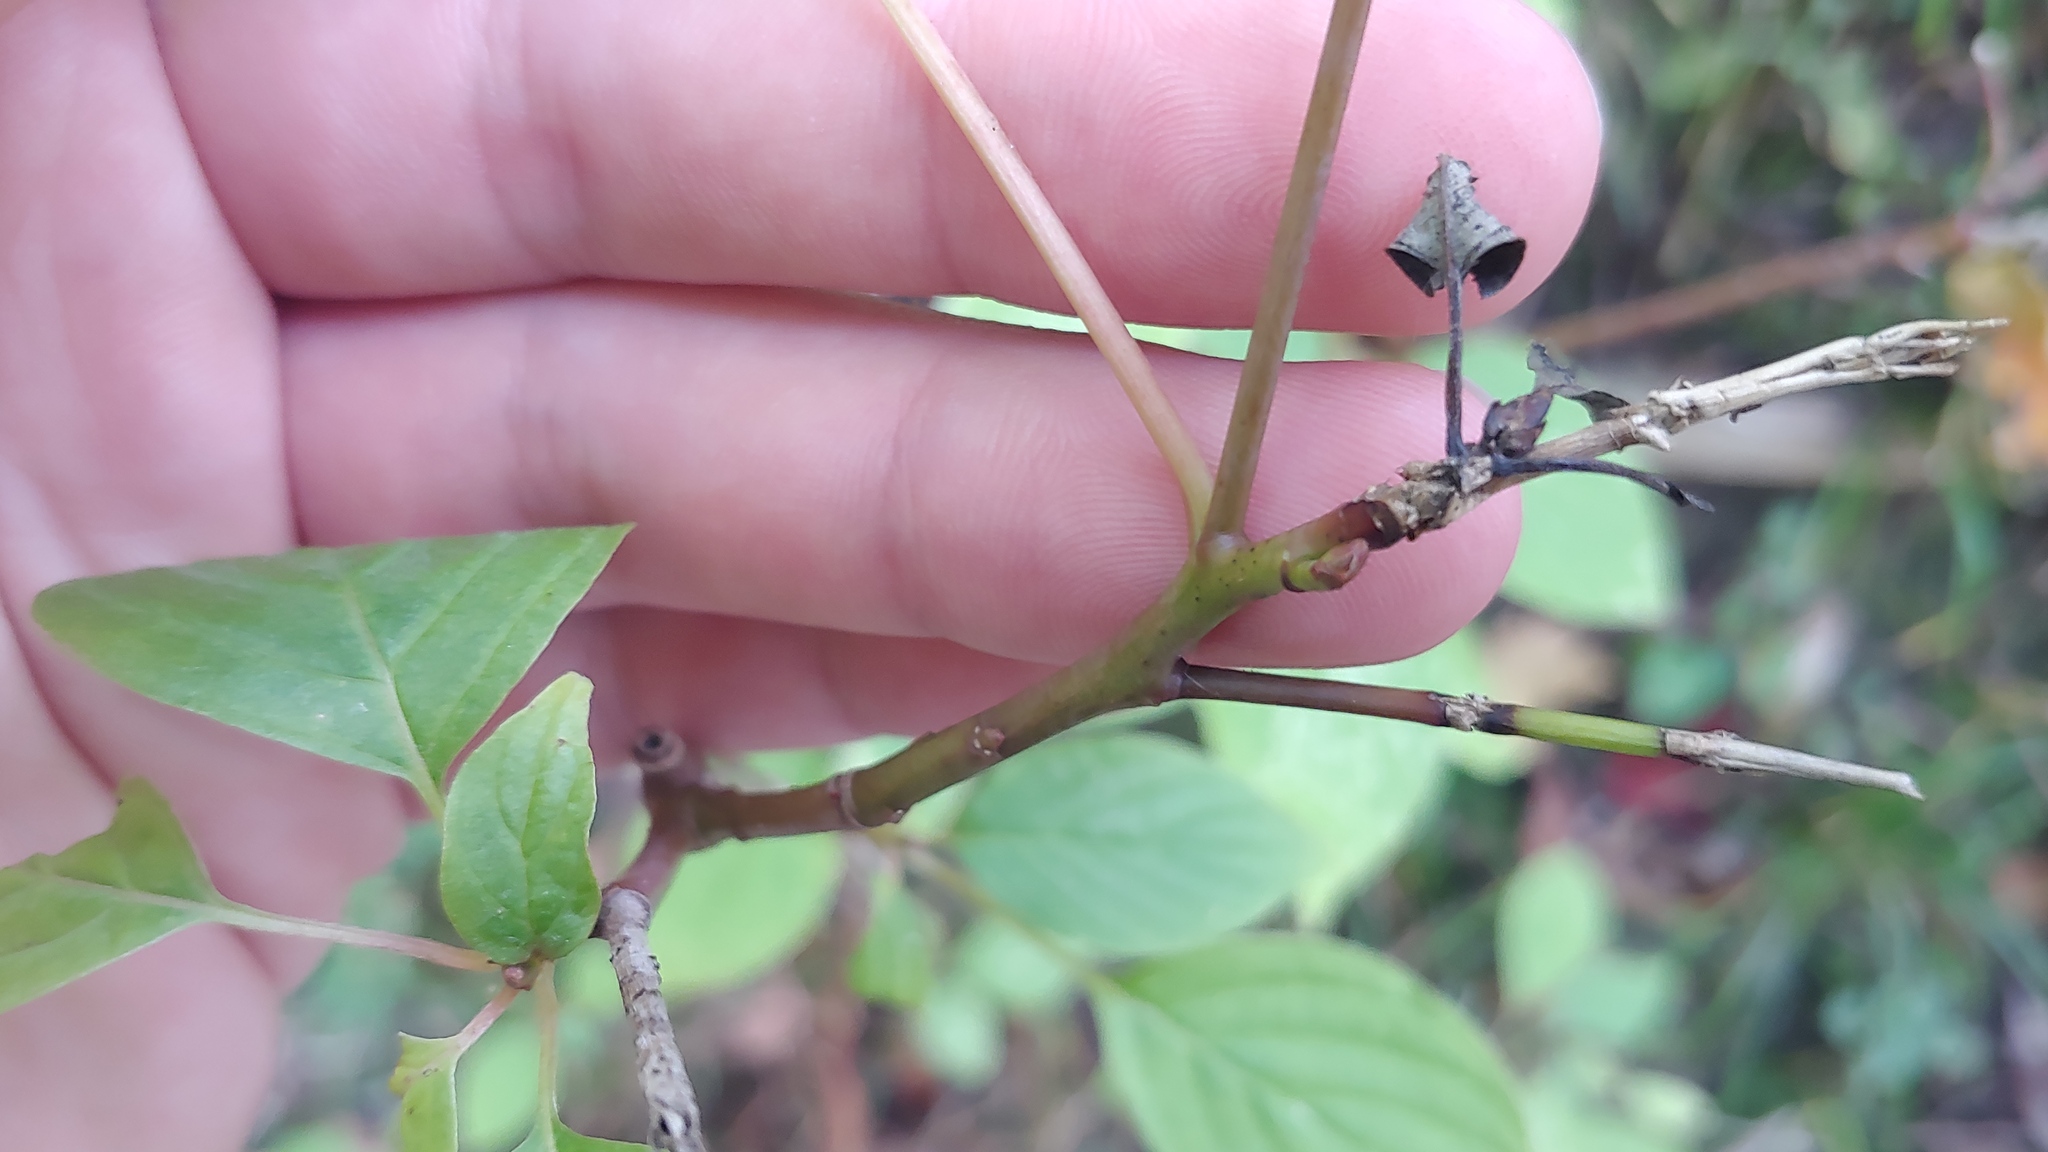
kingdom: Plantae
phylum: Tracheophyta
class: Magnoliopsida
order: Cornales
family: Cornaceae
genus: Cornus
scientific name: Cornus alternifolia
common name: Pagoda dogwood
